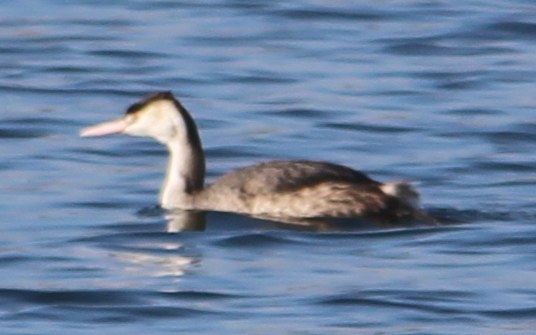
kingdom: Animalia
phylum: Chordata
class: Aves
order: Podicipediformes
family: Podicipedidae
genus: Podiceps
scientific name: Podiceps cristatus
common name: Great crested grebe
